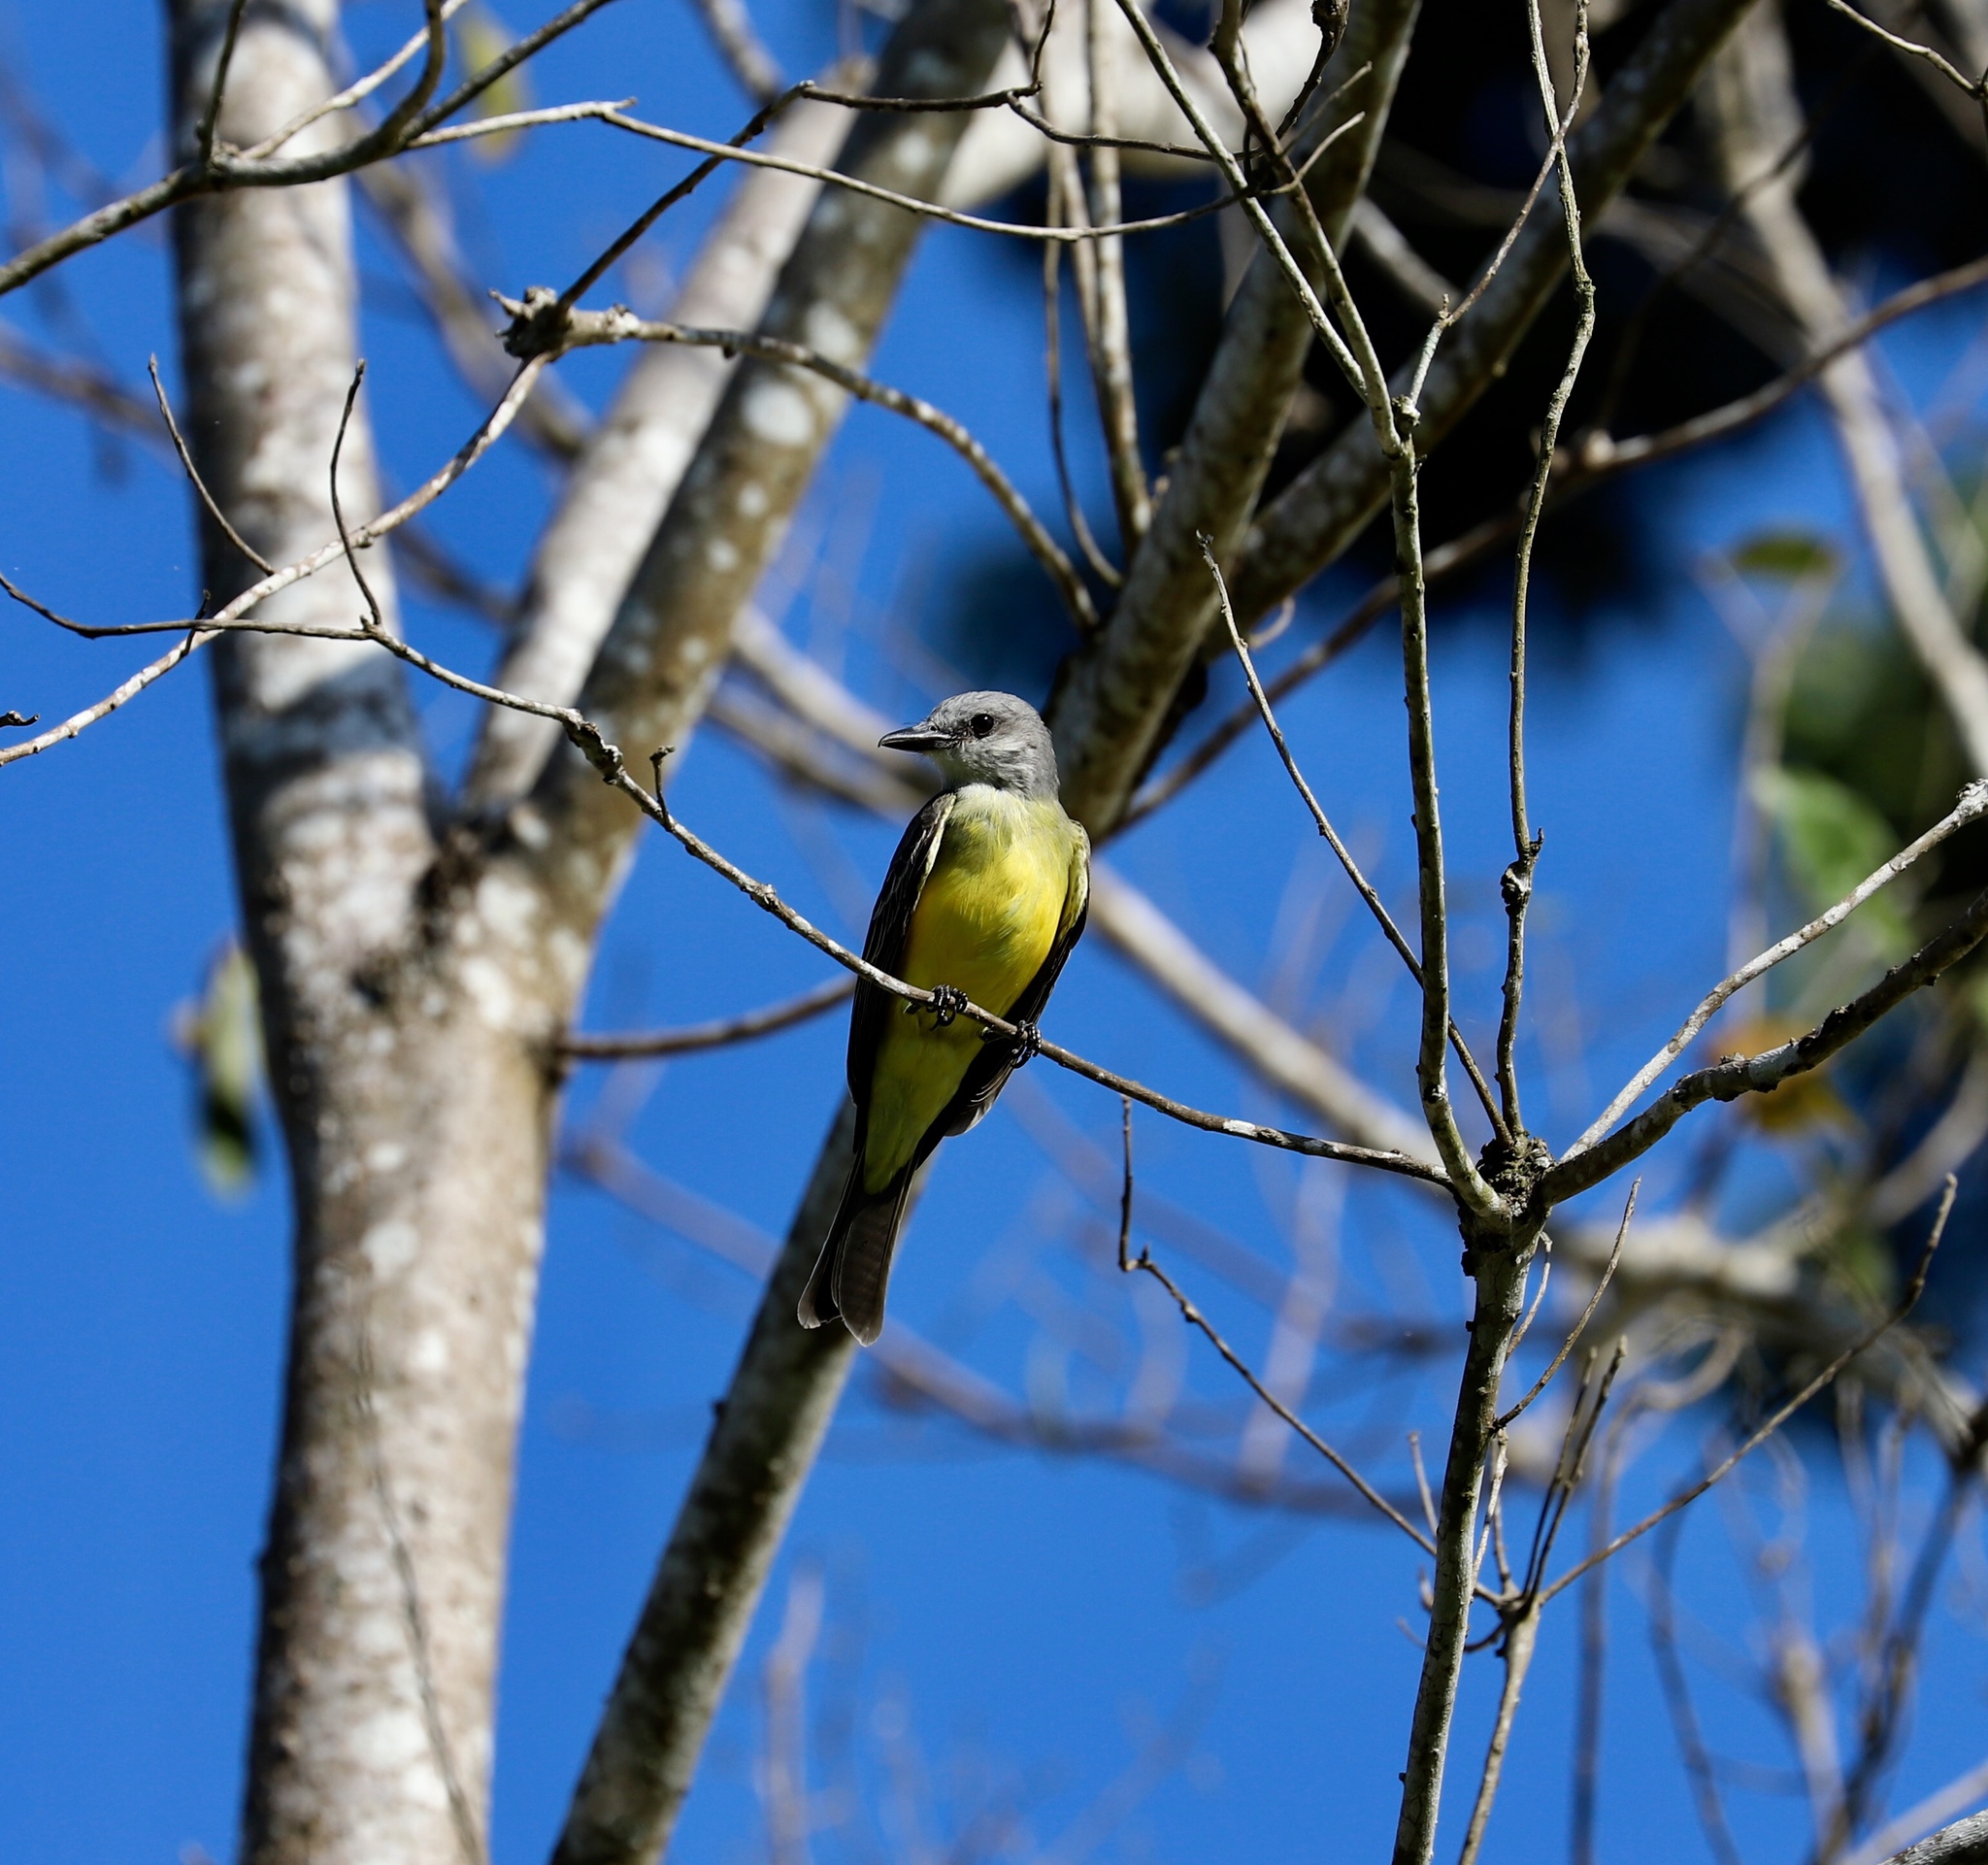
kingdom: Animalia
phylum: Chordata
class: Aves
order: Passeriformes
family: Tyrannidae
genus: Tyrannus
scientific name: Tyrannus melancholicus
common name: Tropical kingbird
